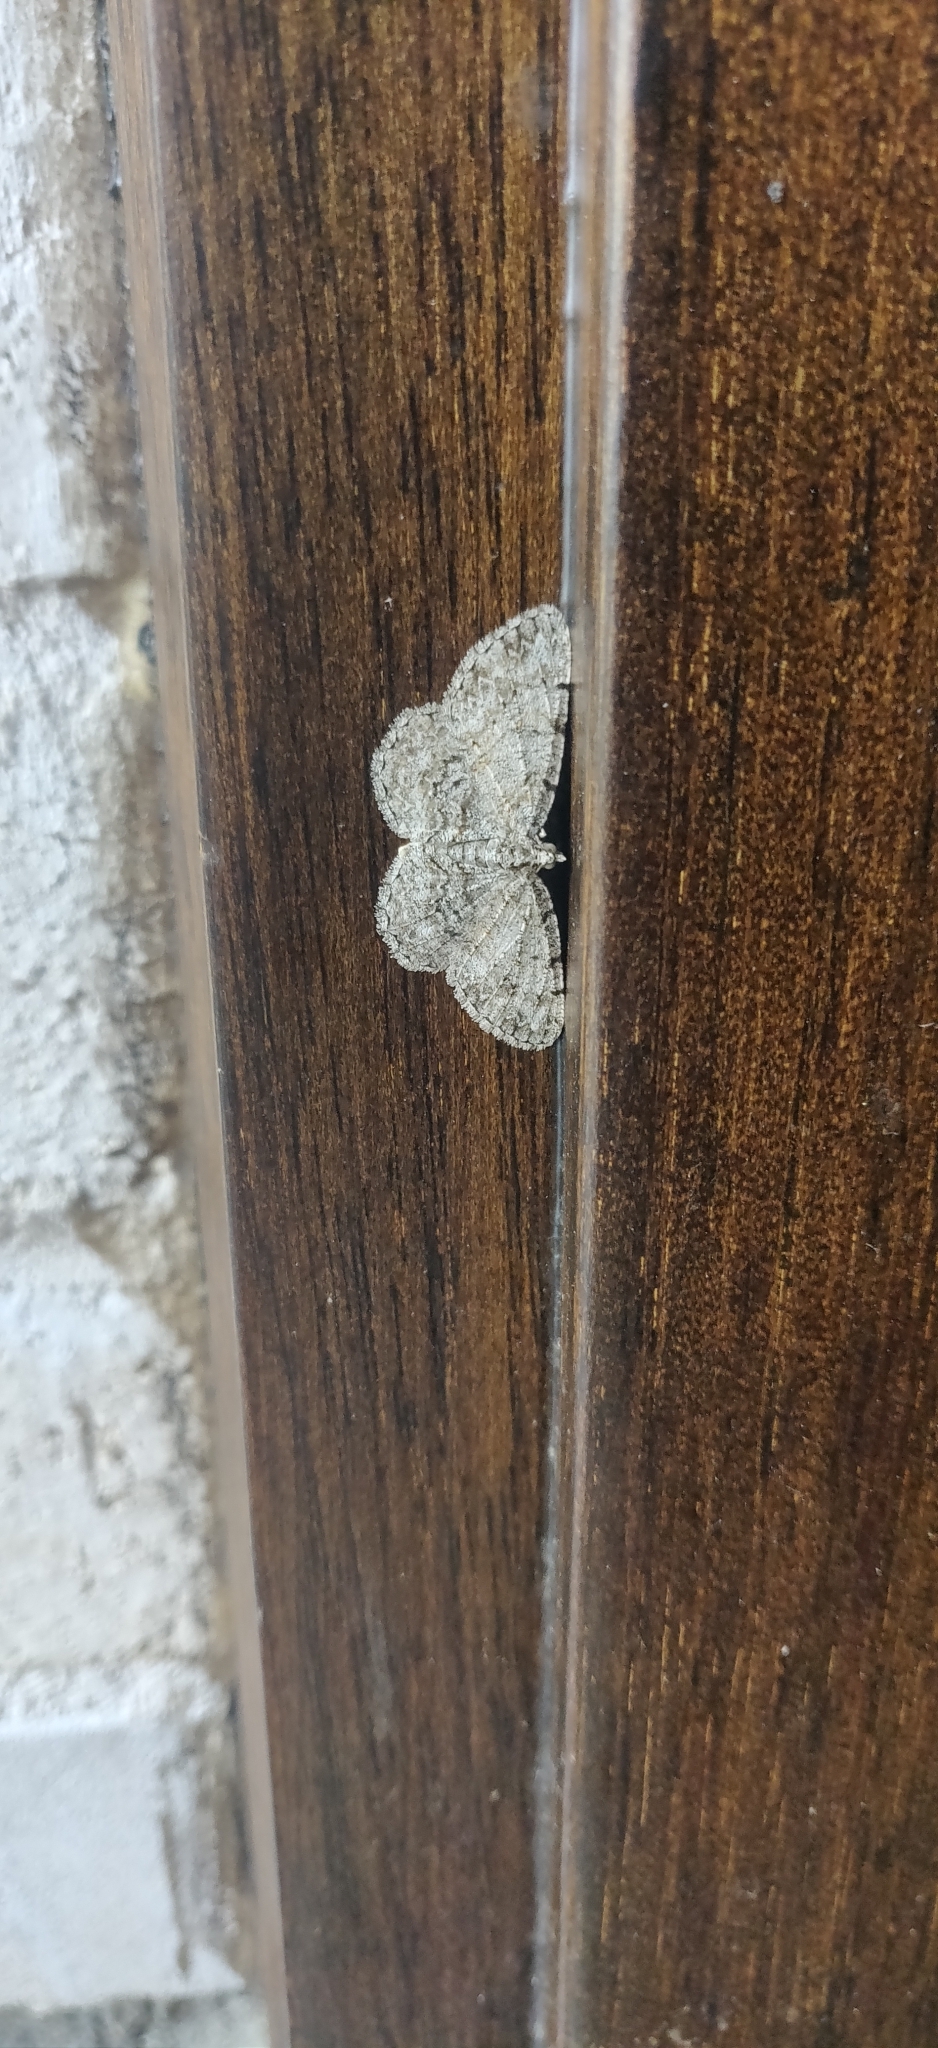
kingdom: Animalia
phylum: Arthropoda
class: Insecta
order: Lepidoptera
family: Geometridae
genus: Protoboarmia
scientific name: Protoboarmia porcelaria
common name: Porcelain gray
